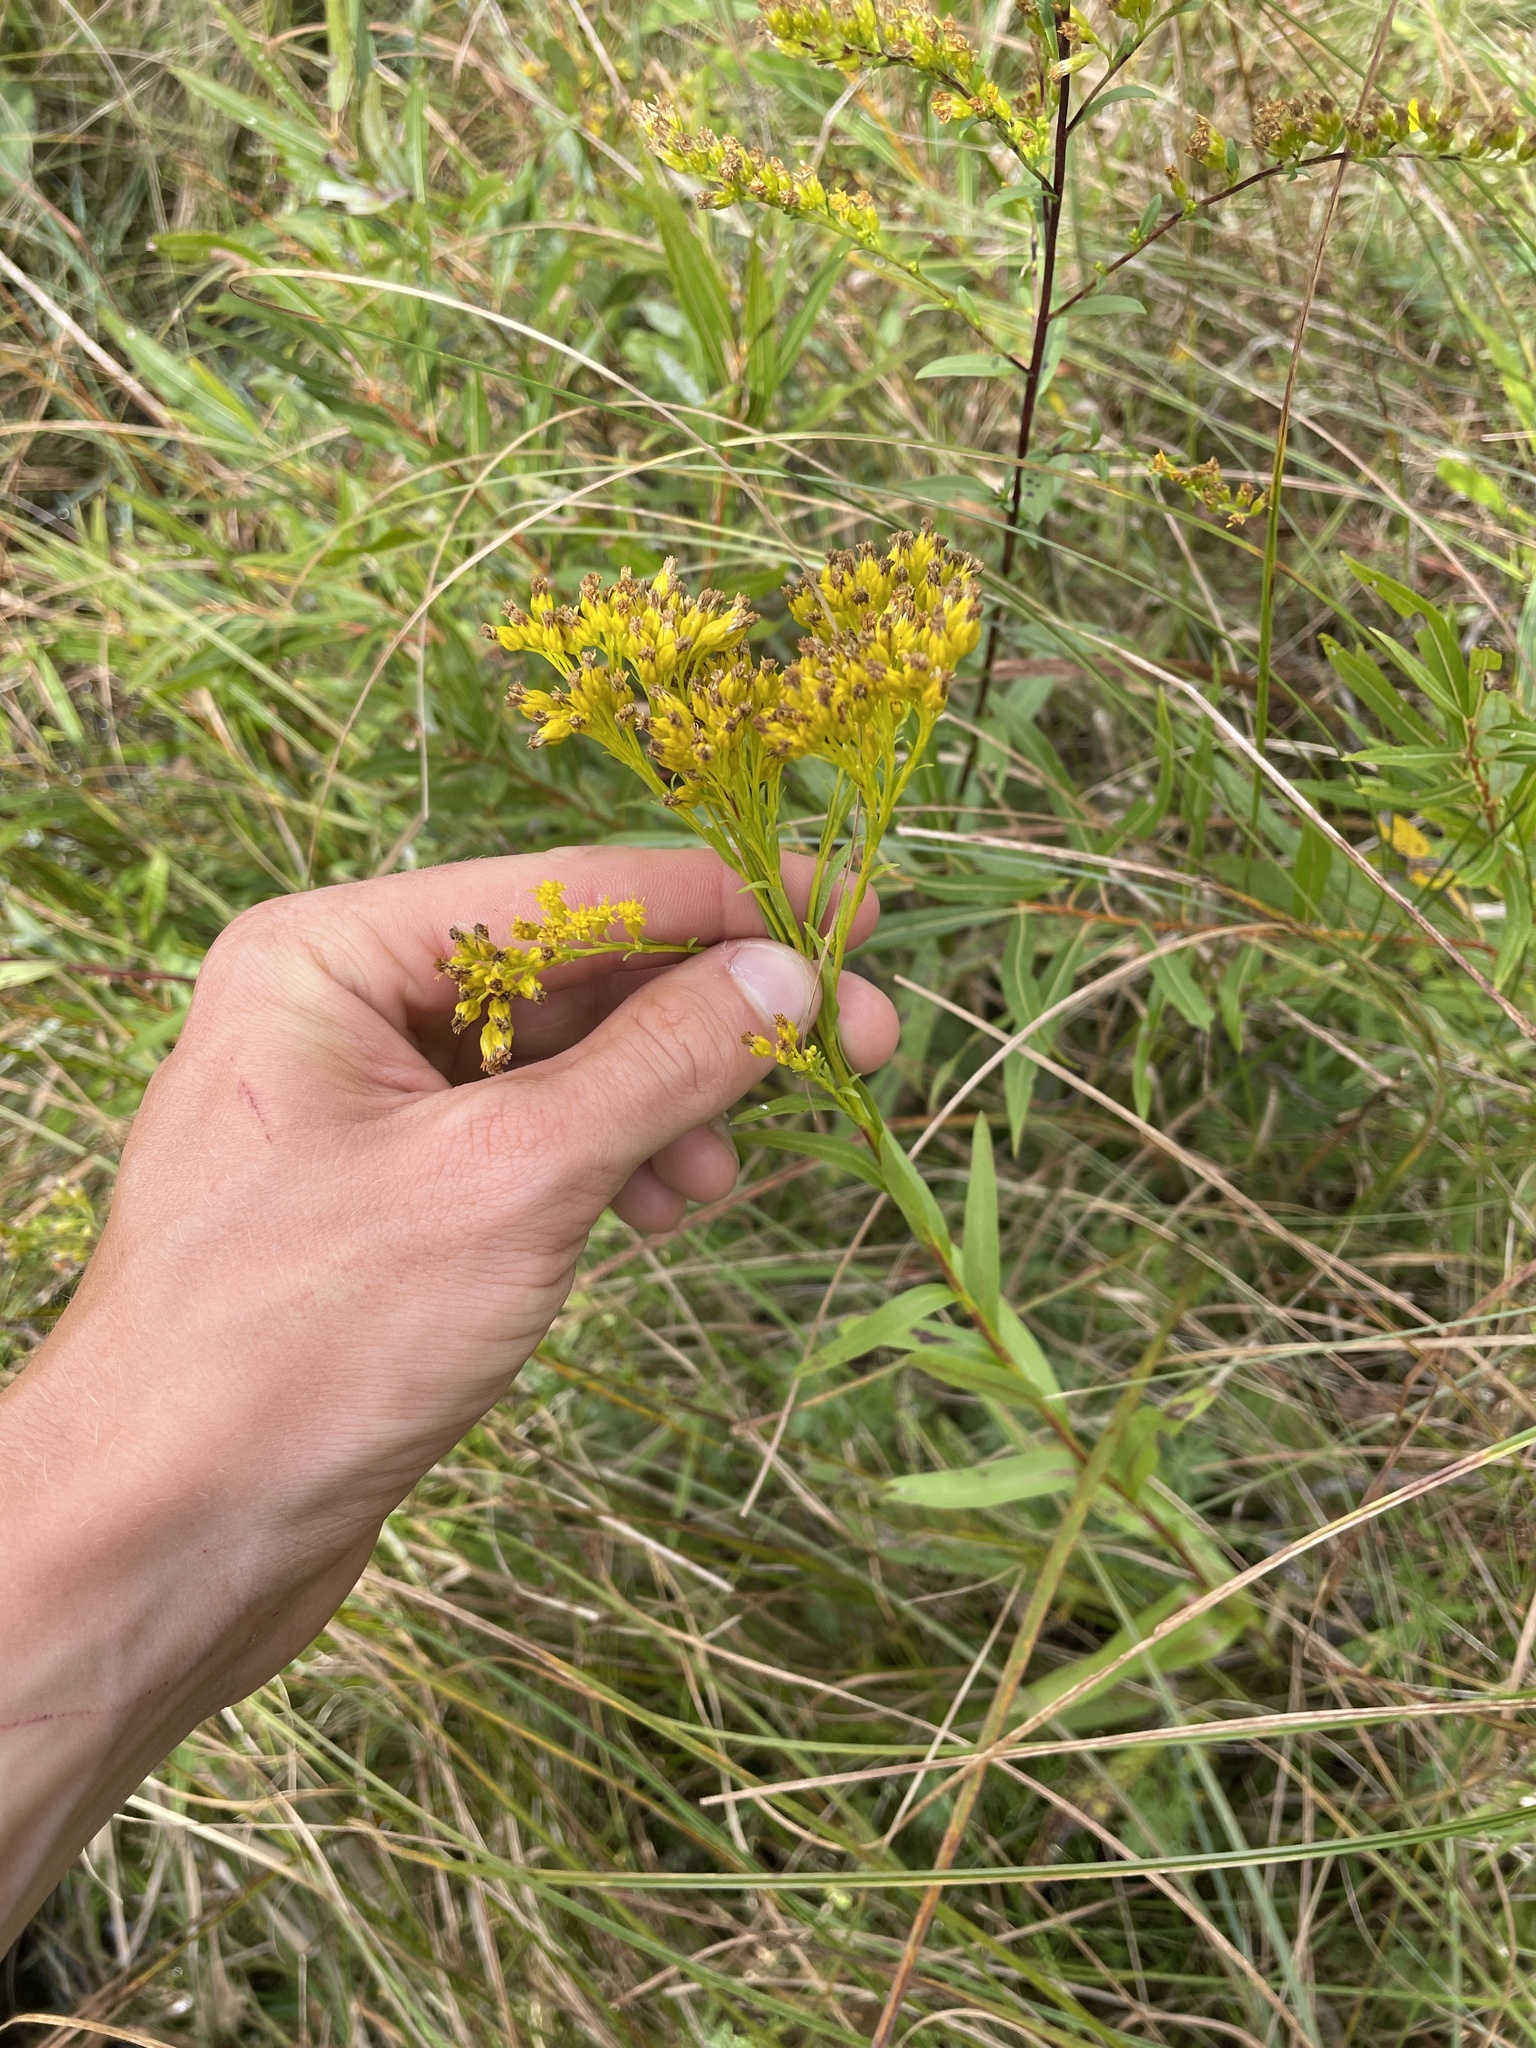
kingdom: Plantae
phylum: Tracheophyta
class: Magnoliopsida
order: Asterales
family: Asteraceae
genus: Solidago
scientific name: Solidago ohioensis
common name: Ohio goldenrod
